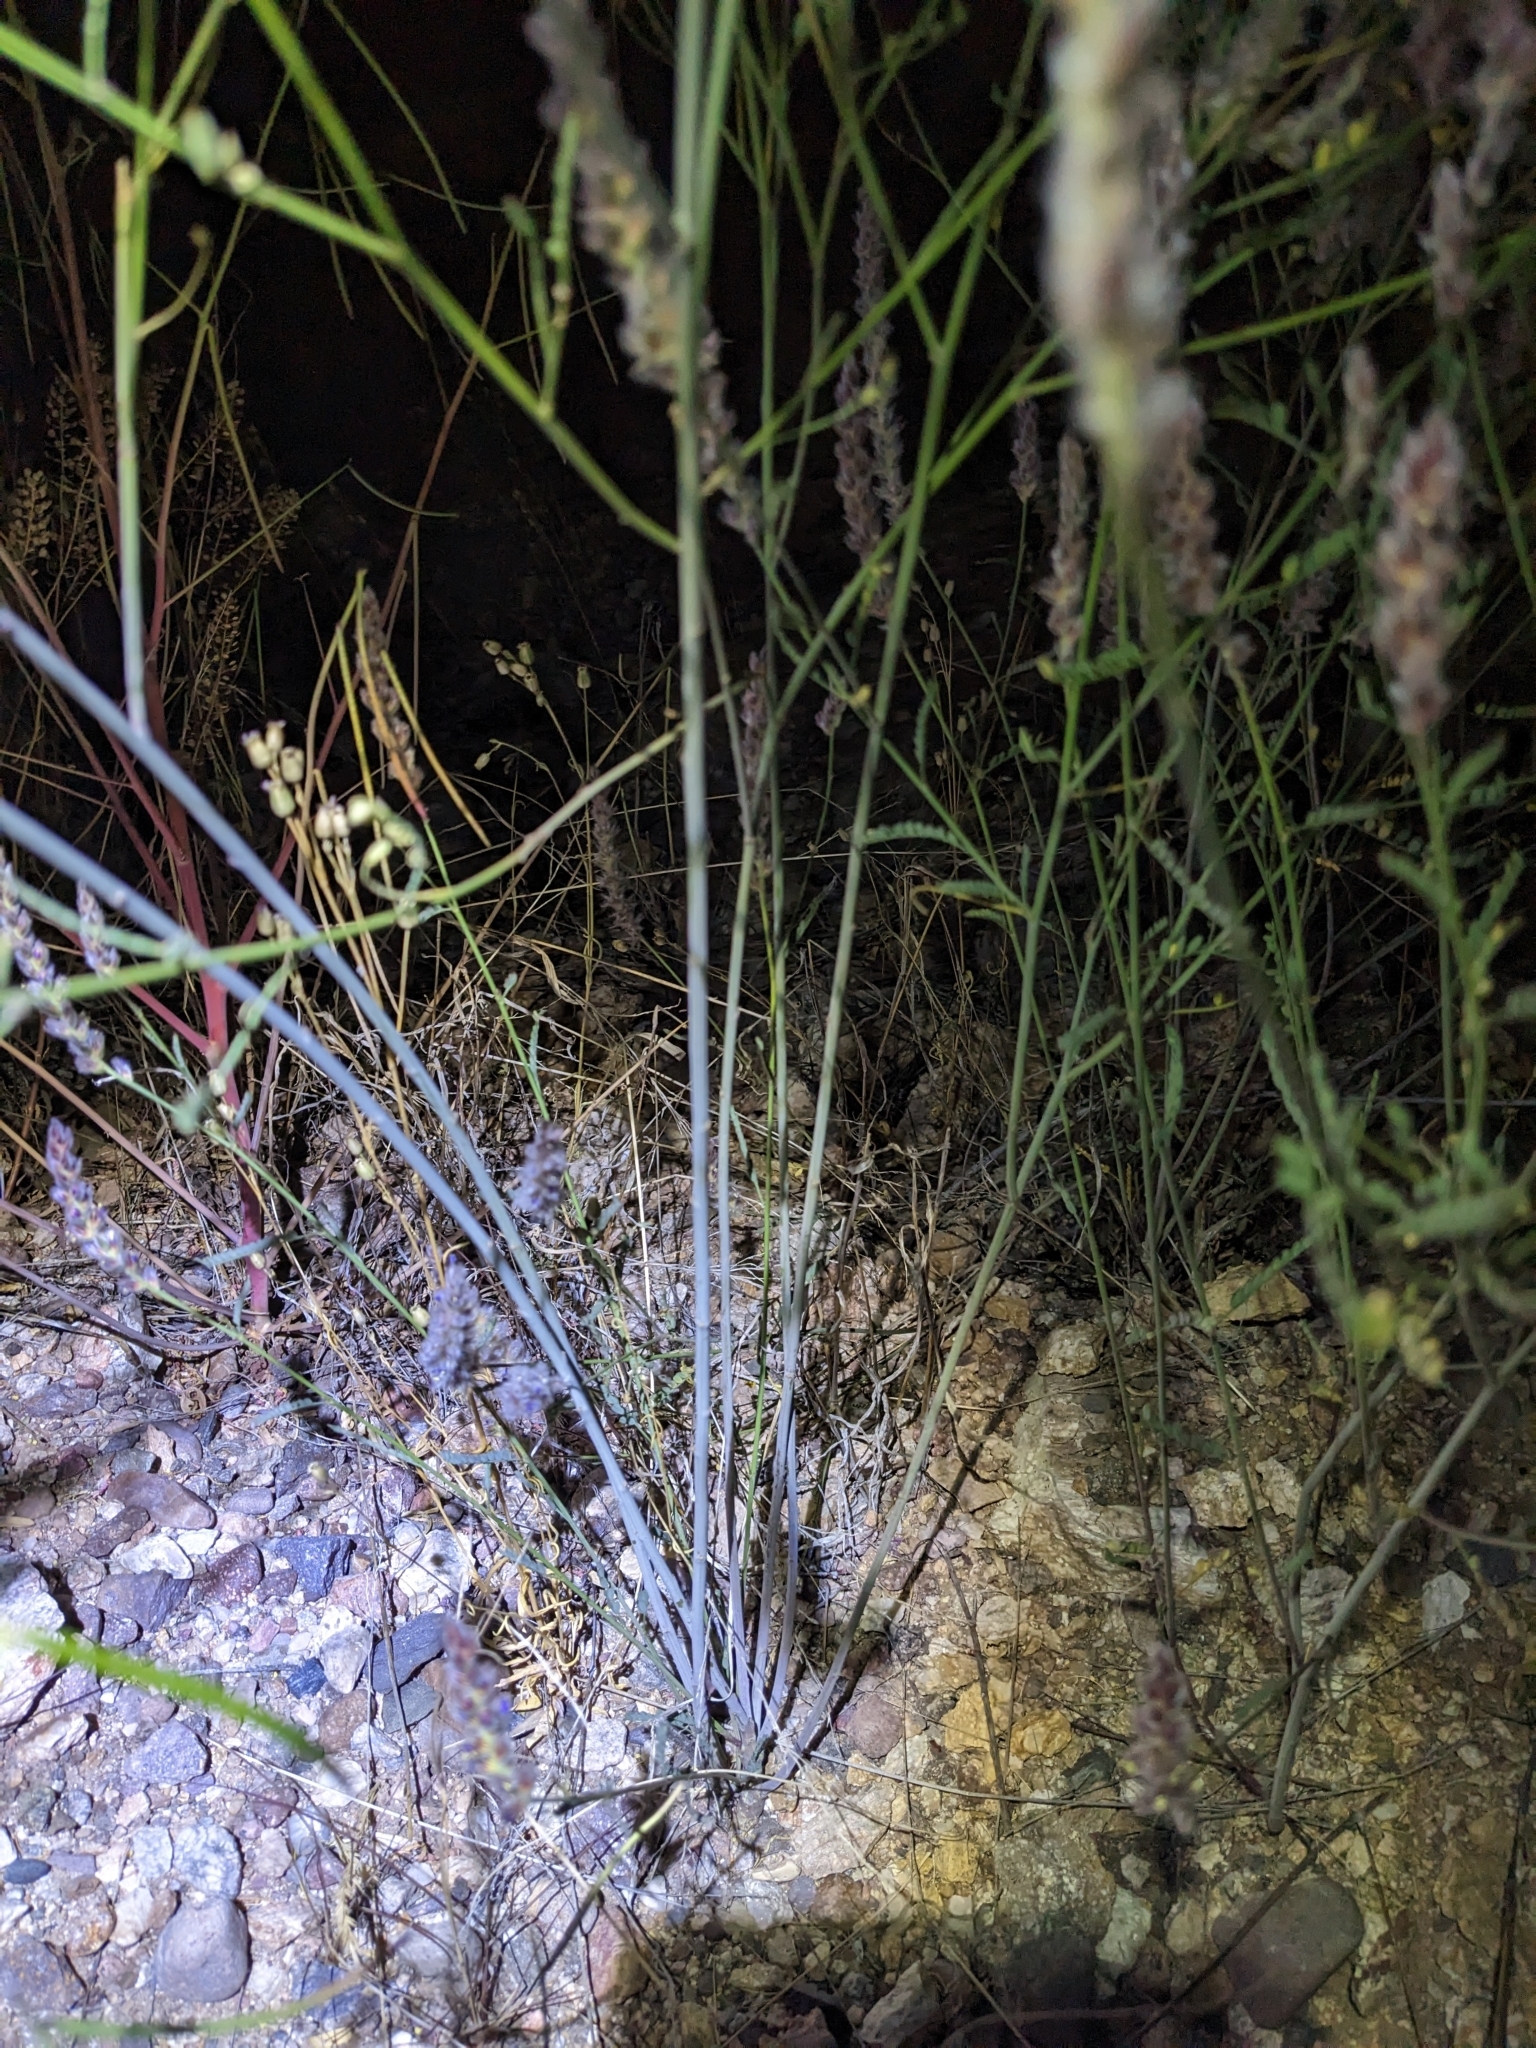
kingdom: Plantae
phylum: Tracheophyta
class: Magnoliopsida
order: Fabales
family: Fabaceae
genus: Dalea
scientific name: Dalea pringlei
